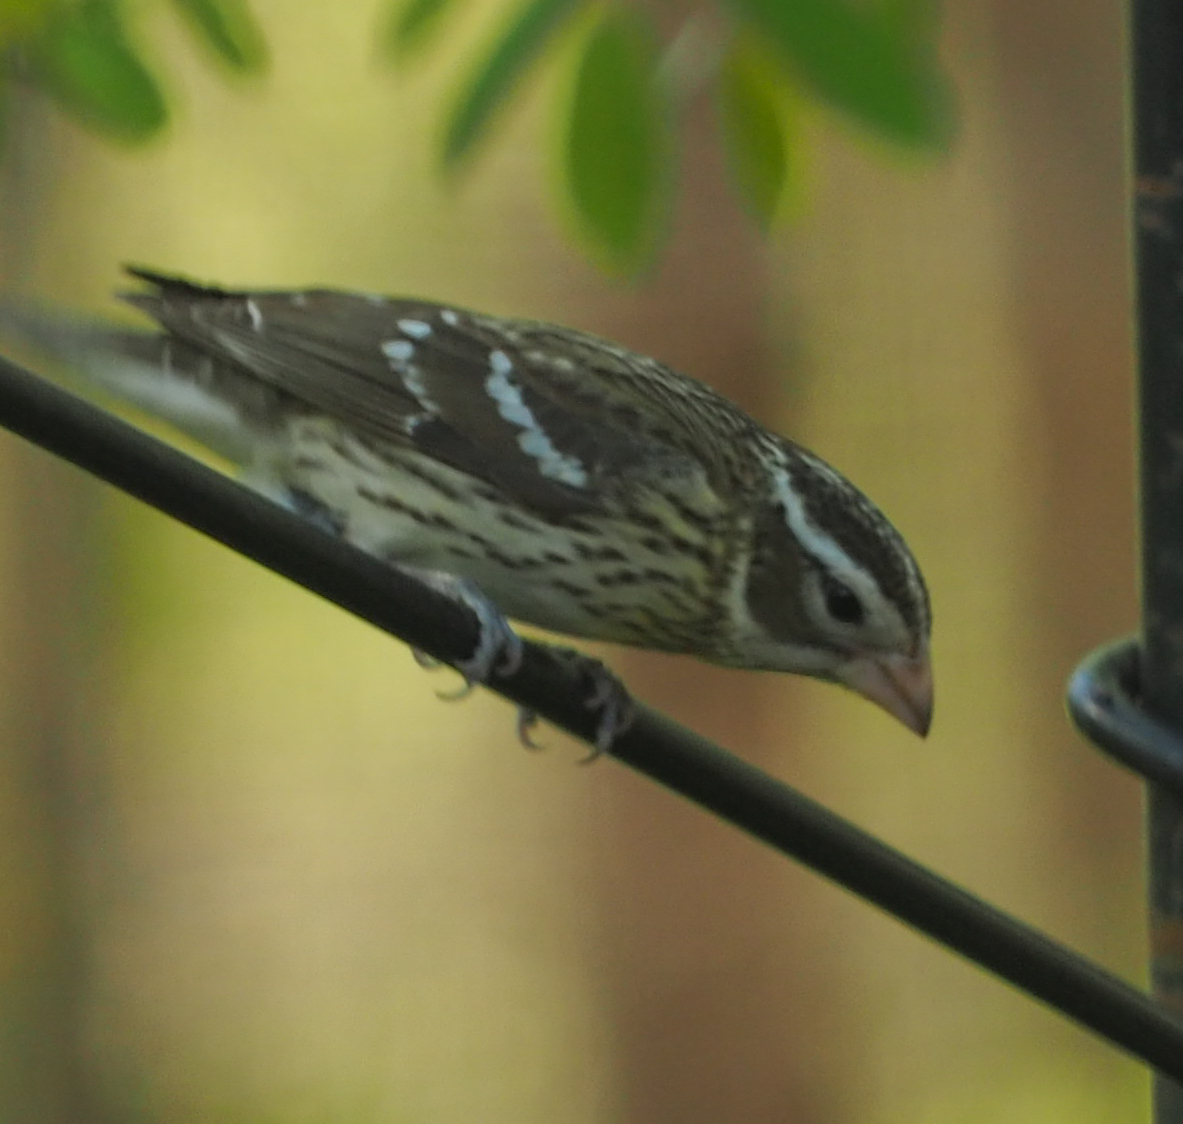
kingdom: Animalia
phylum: Chordata
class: Aves
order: Passeriformes
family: Cardinalidae
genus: Pheucticus
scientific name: Pheucticus ludovicianus
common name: Rose-breasted grosbeak
